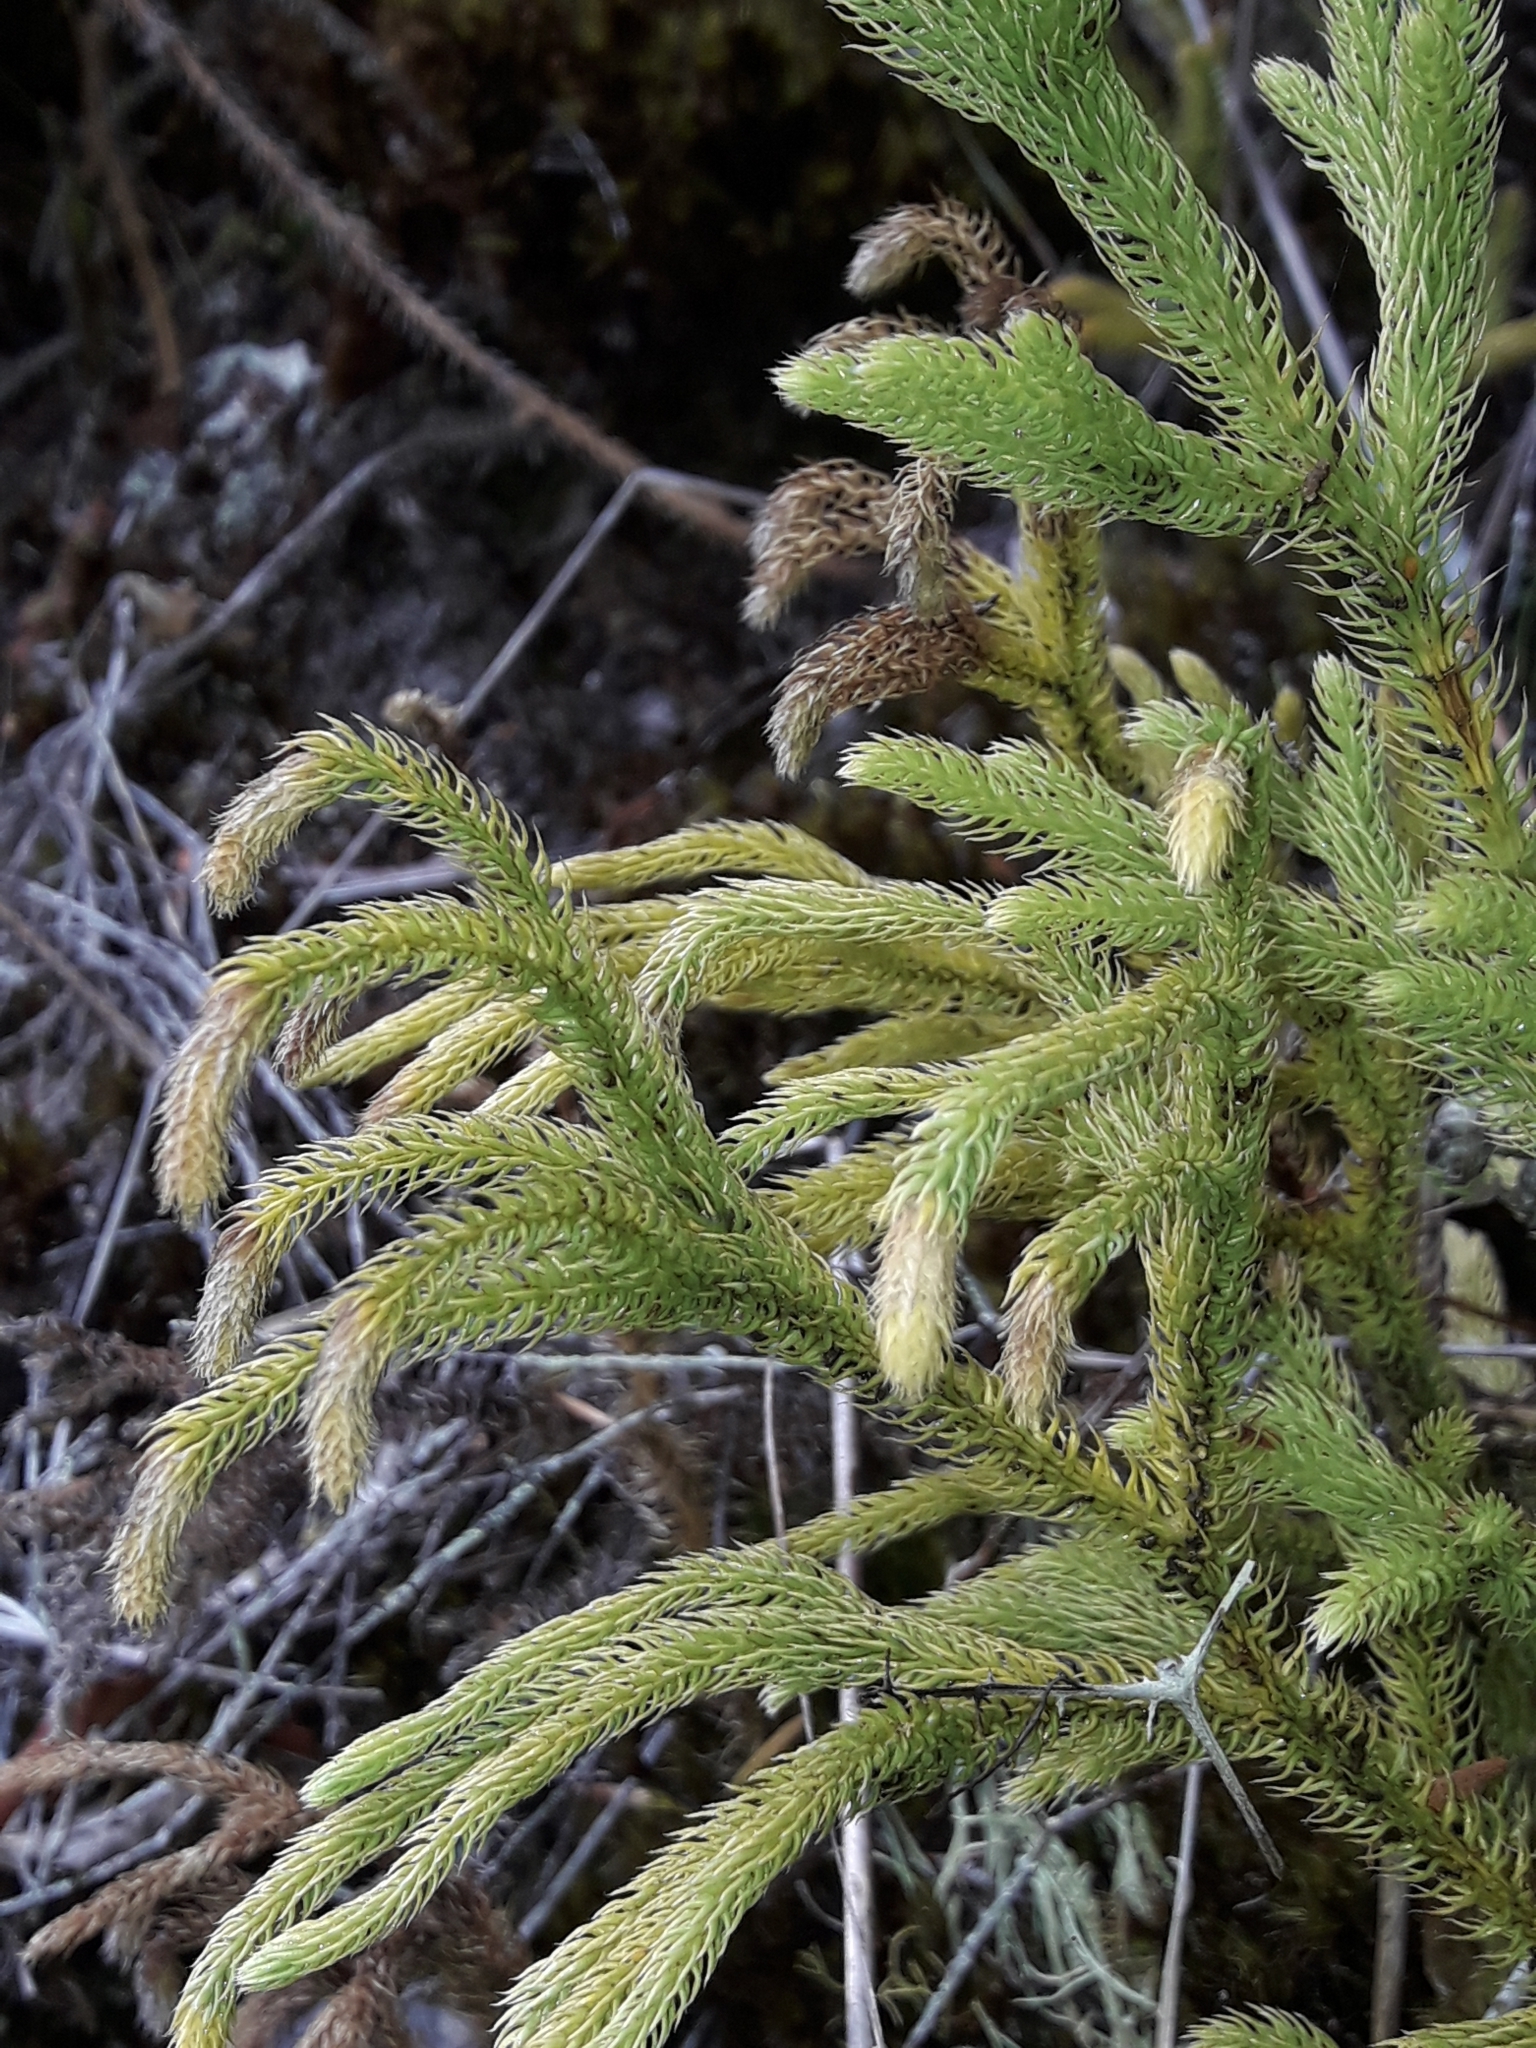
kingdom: Plantae
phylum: Tracheophyta
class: Lycopodiopsida
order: Lycopodiales
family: Lycopodiaceae
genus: Palhinhaea
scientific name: Palhinhaea cernua
